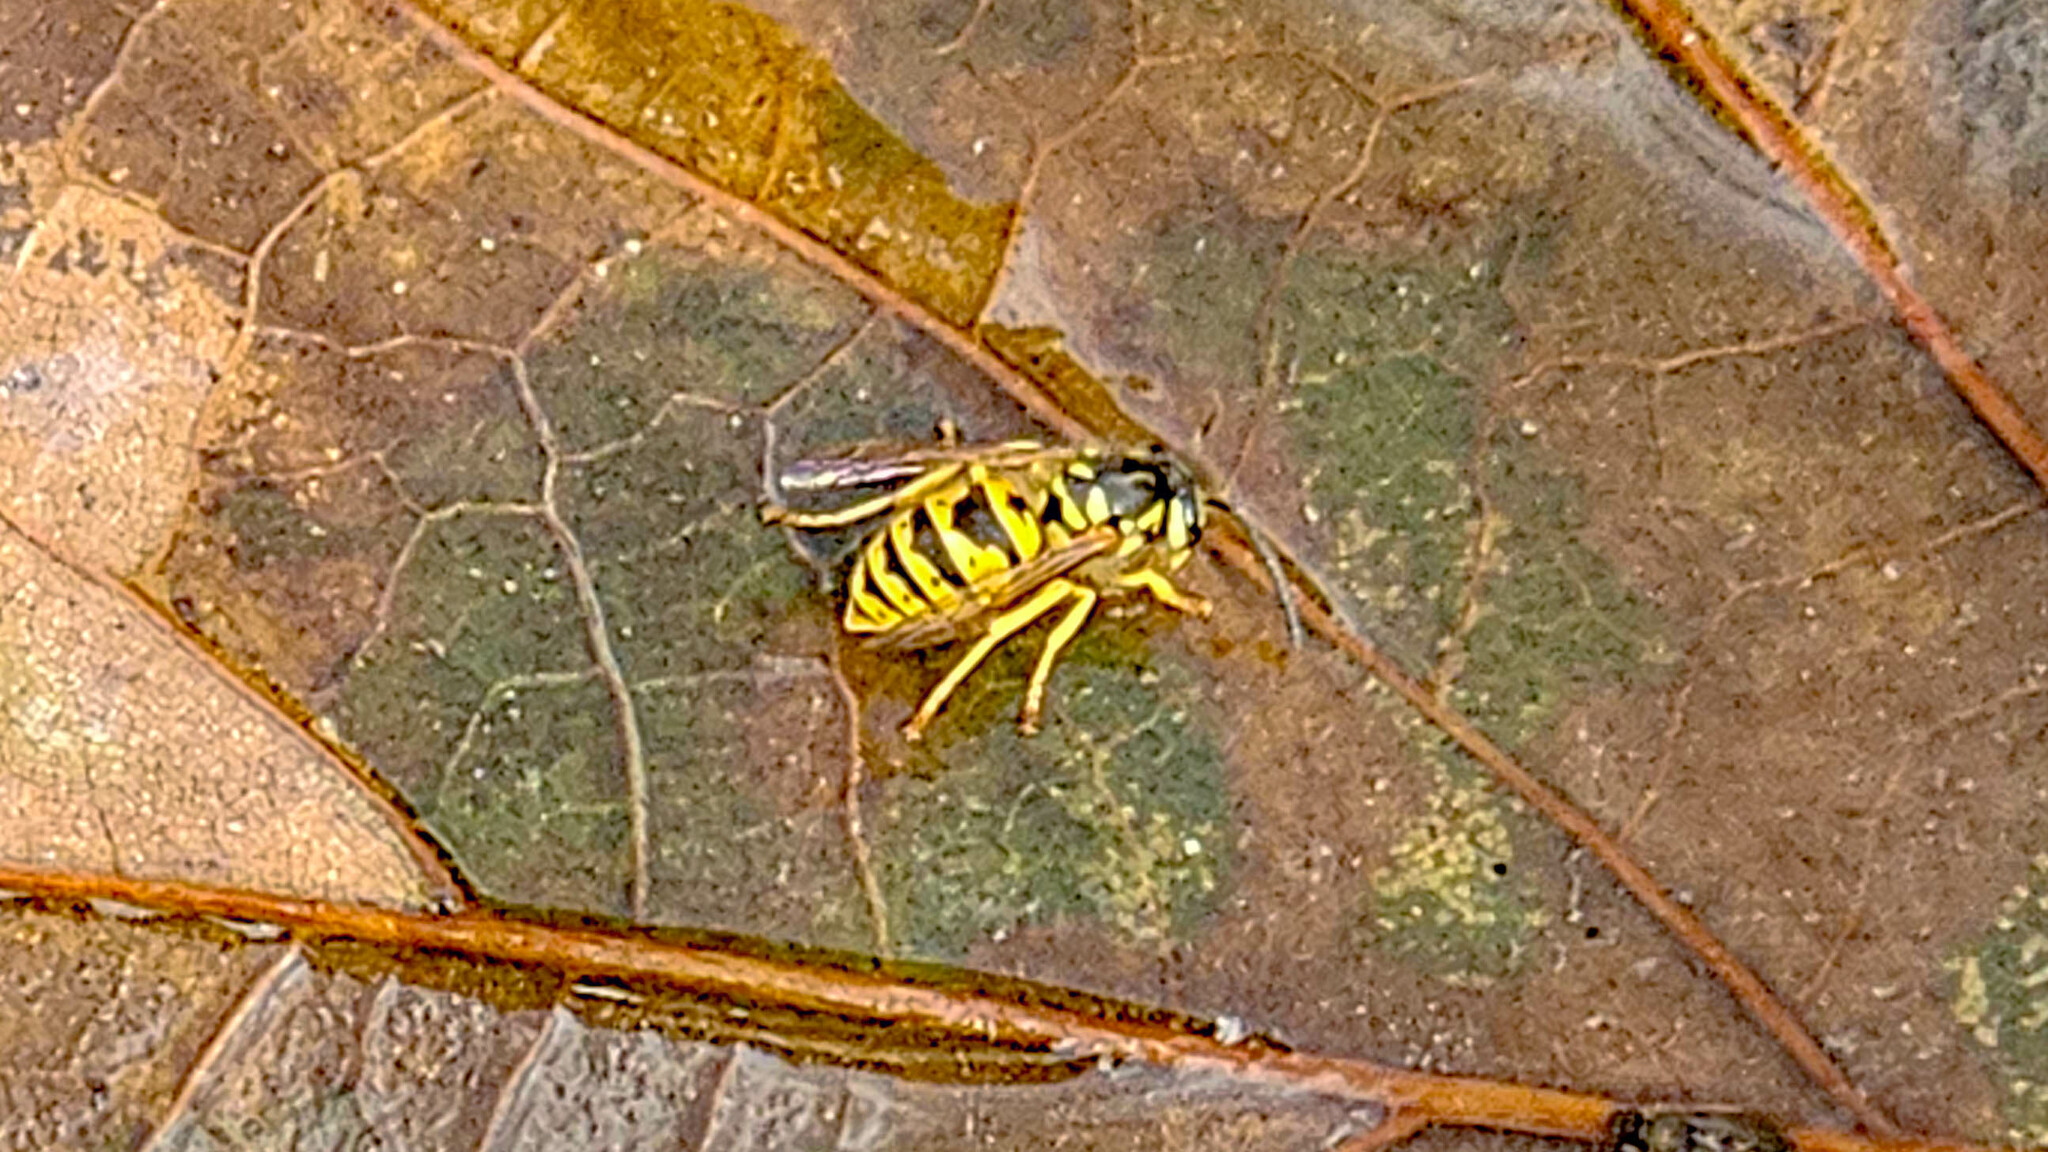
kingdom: Animalia
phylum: Arthropoda
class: Insecta
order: Hymenoptera
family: Vespidae
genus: Vespula
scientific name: Vespula vulgaris
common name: Common wasp
